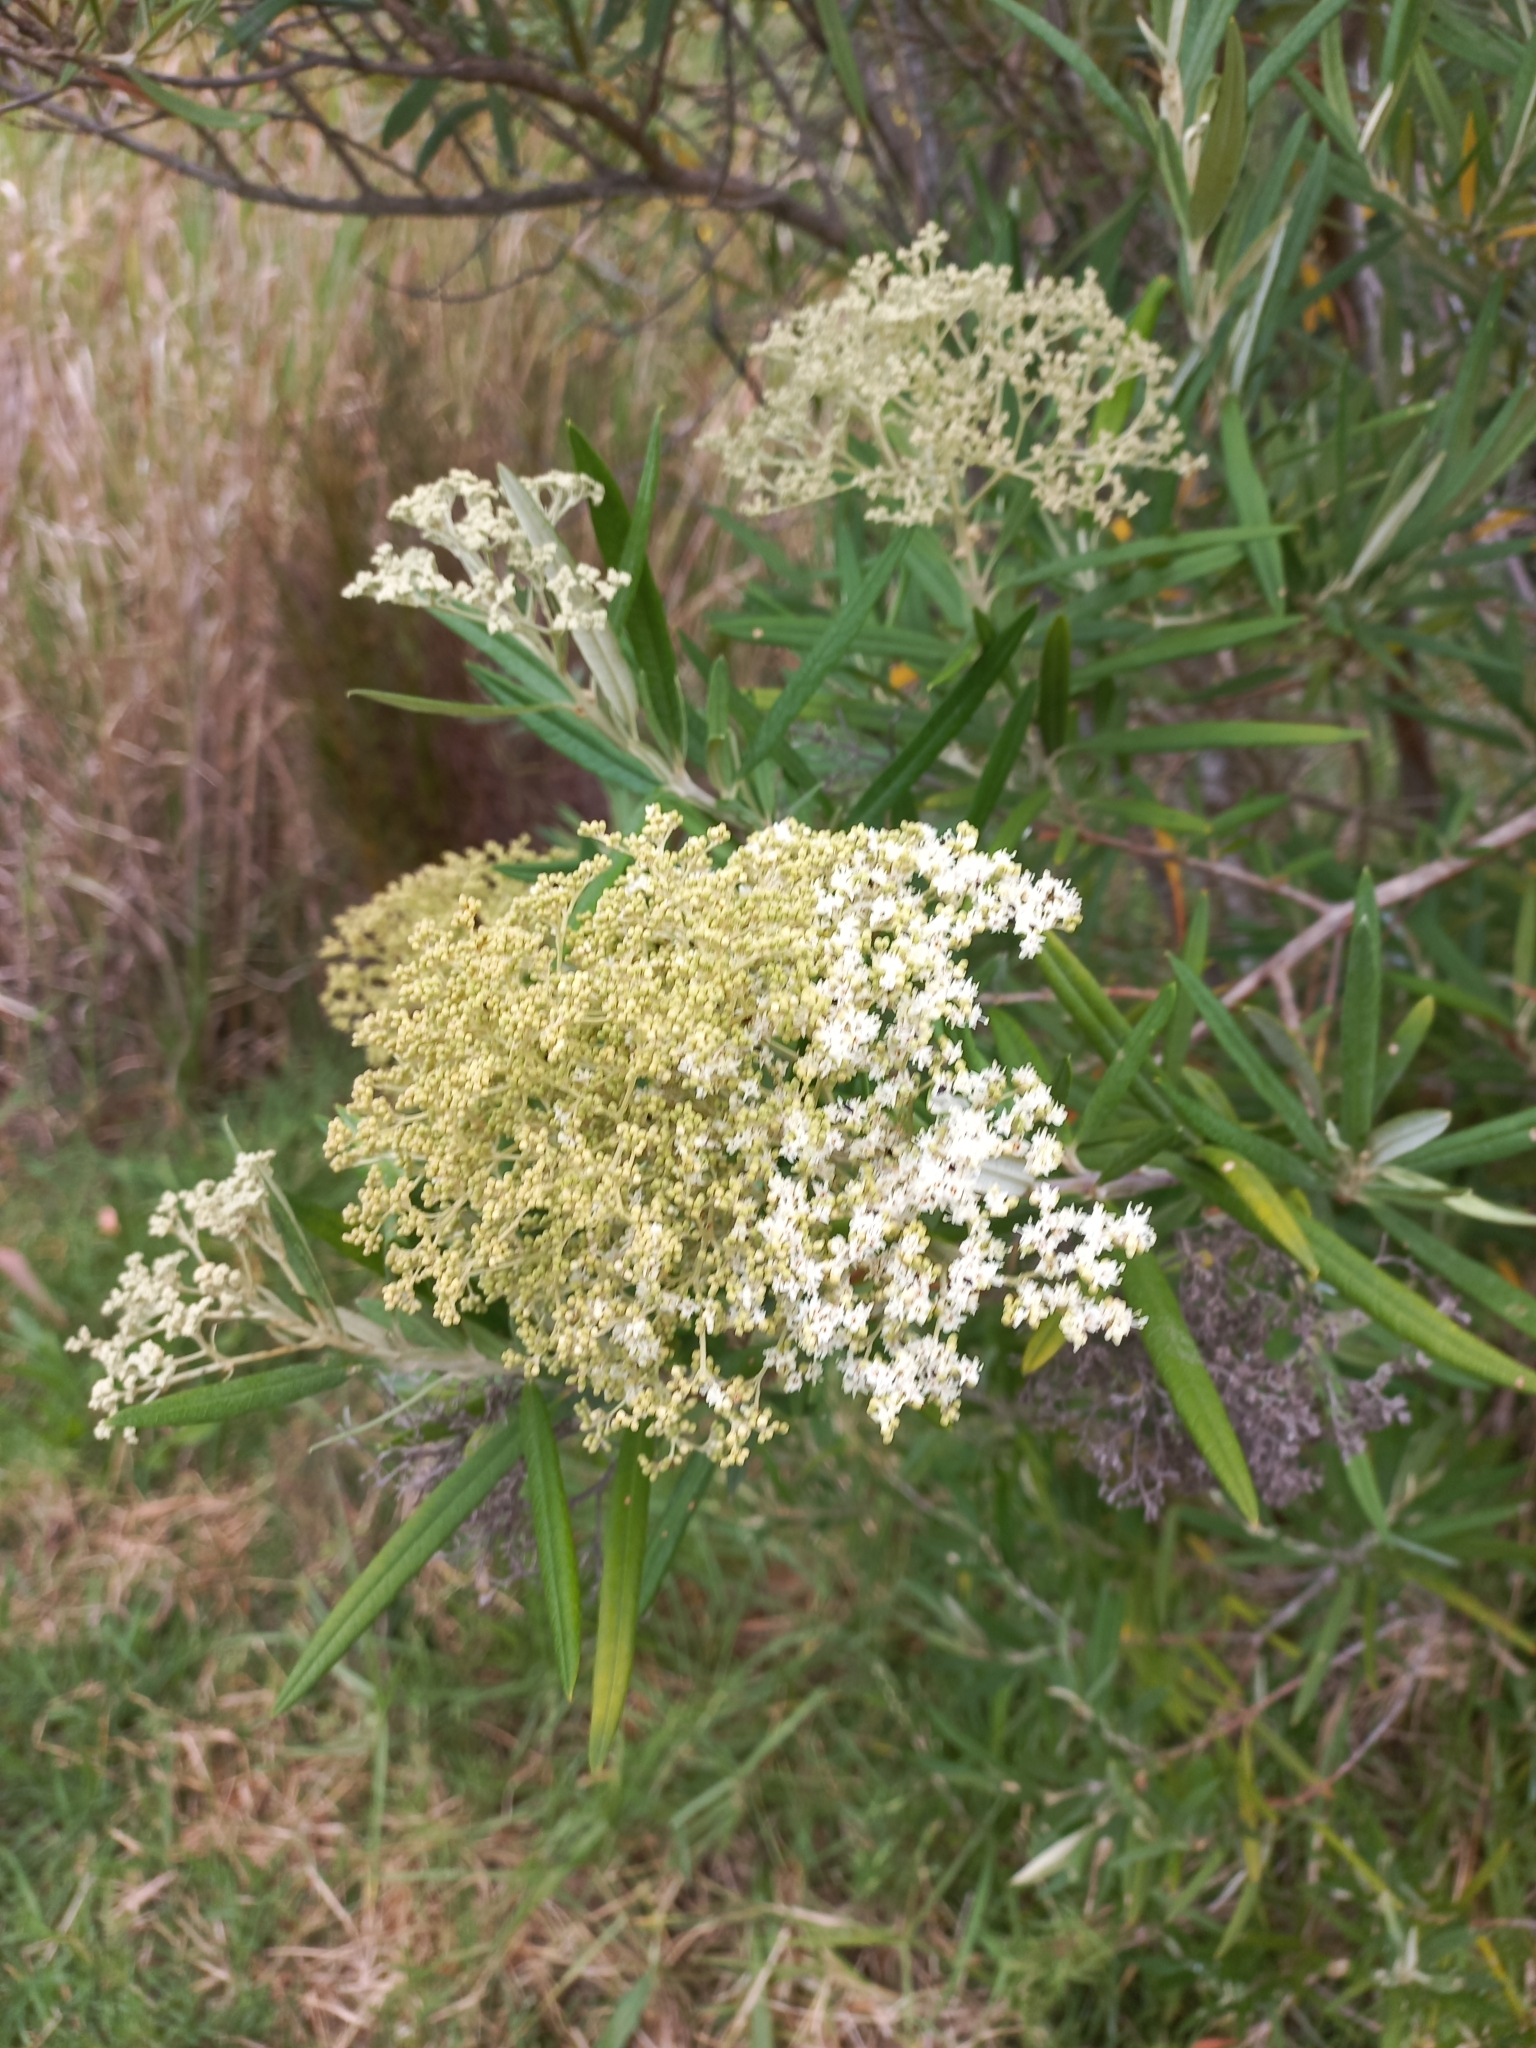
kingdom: Plantae
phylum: Tracheophyta
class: Magnoliopsida
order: Lamiales
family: Scrophulariaceae
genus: Buddleja
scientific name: Buddleja saligna
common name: False olive
